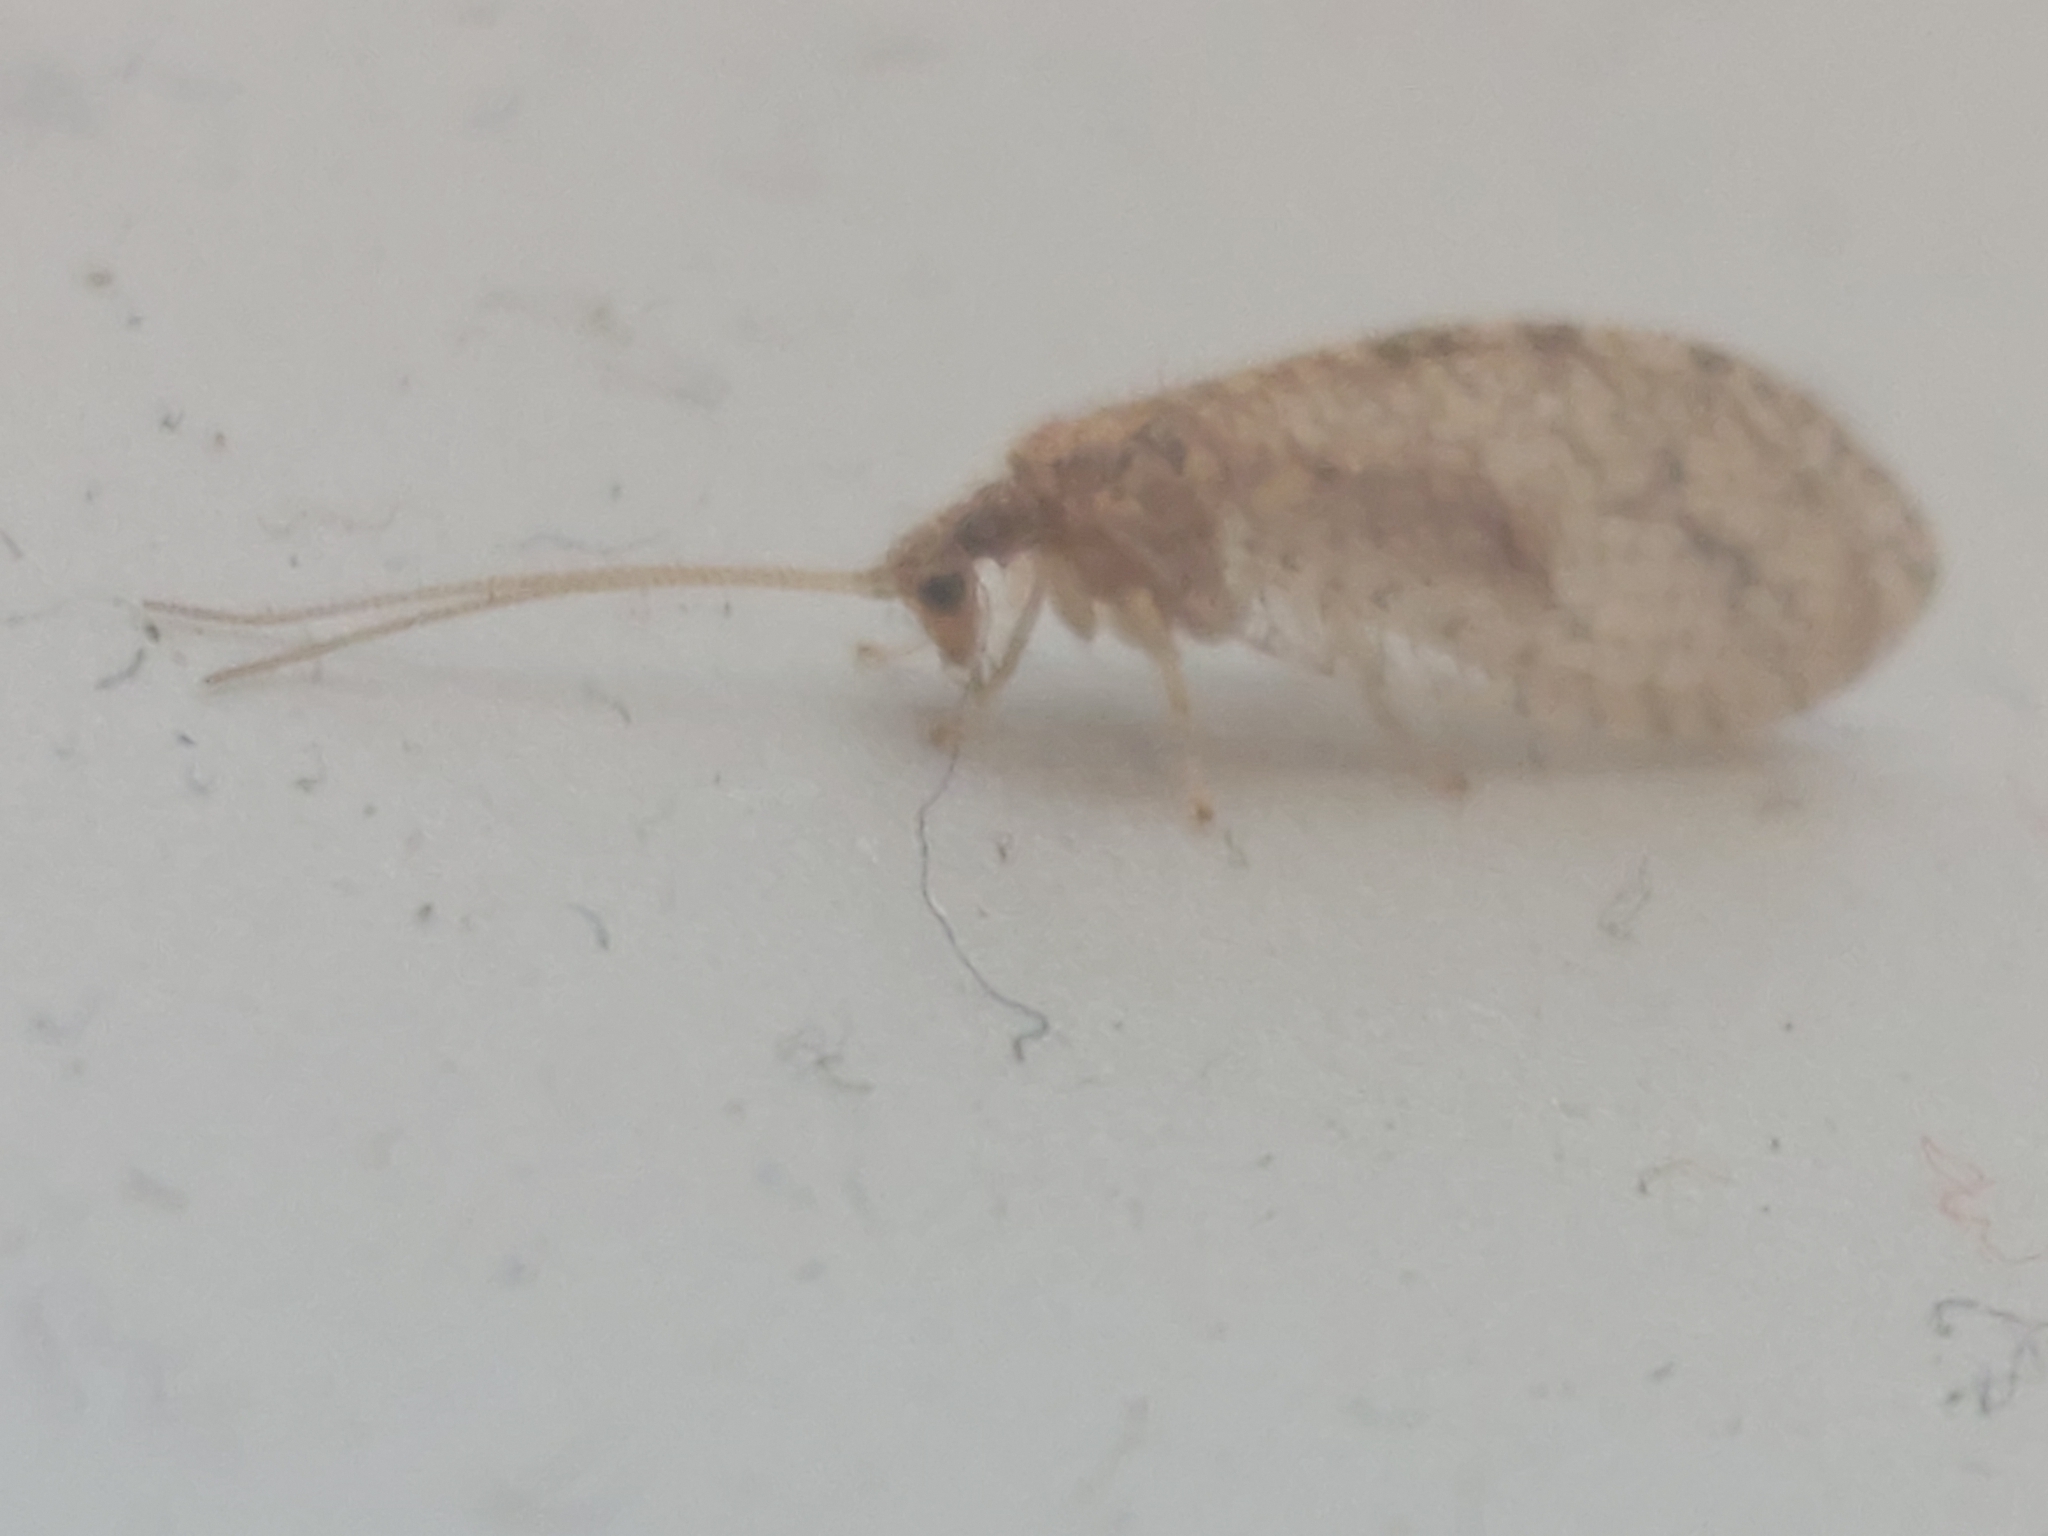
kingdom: Animalia
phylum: Arthropoda
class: Insecta
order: Neuroptera
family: Hemerobiidae
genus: Micromus
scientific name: Micromus posticus
